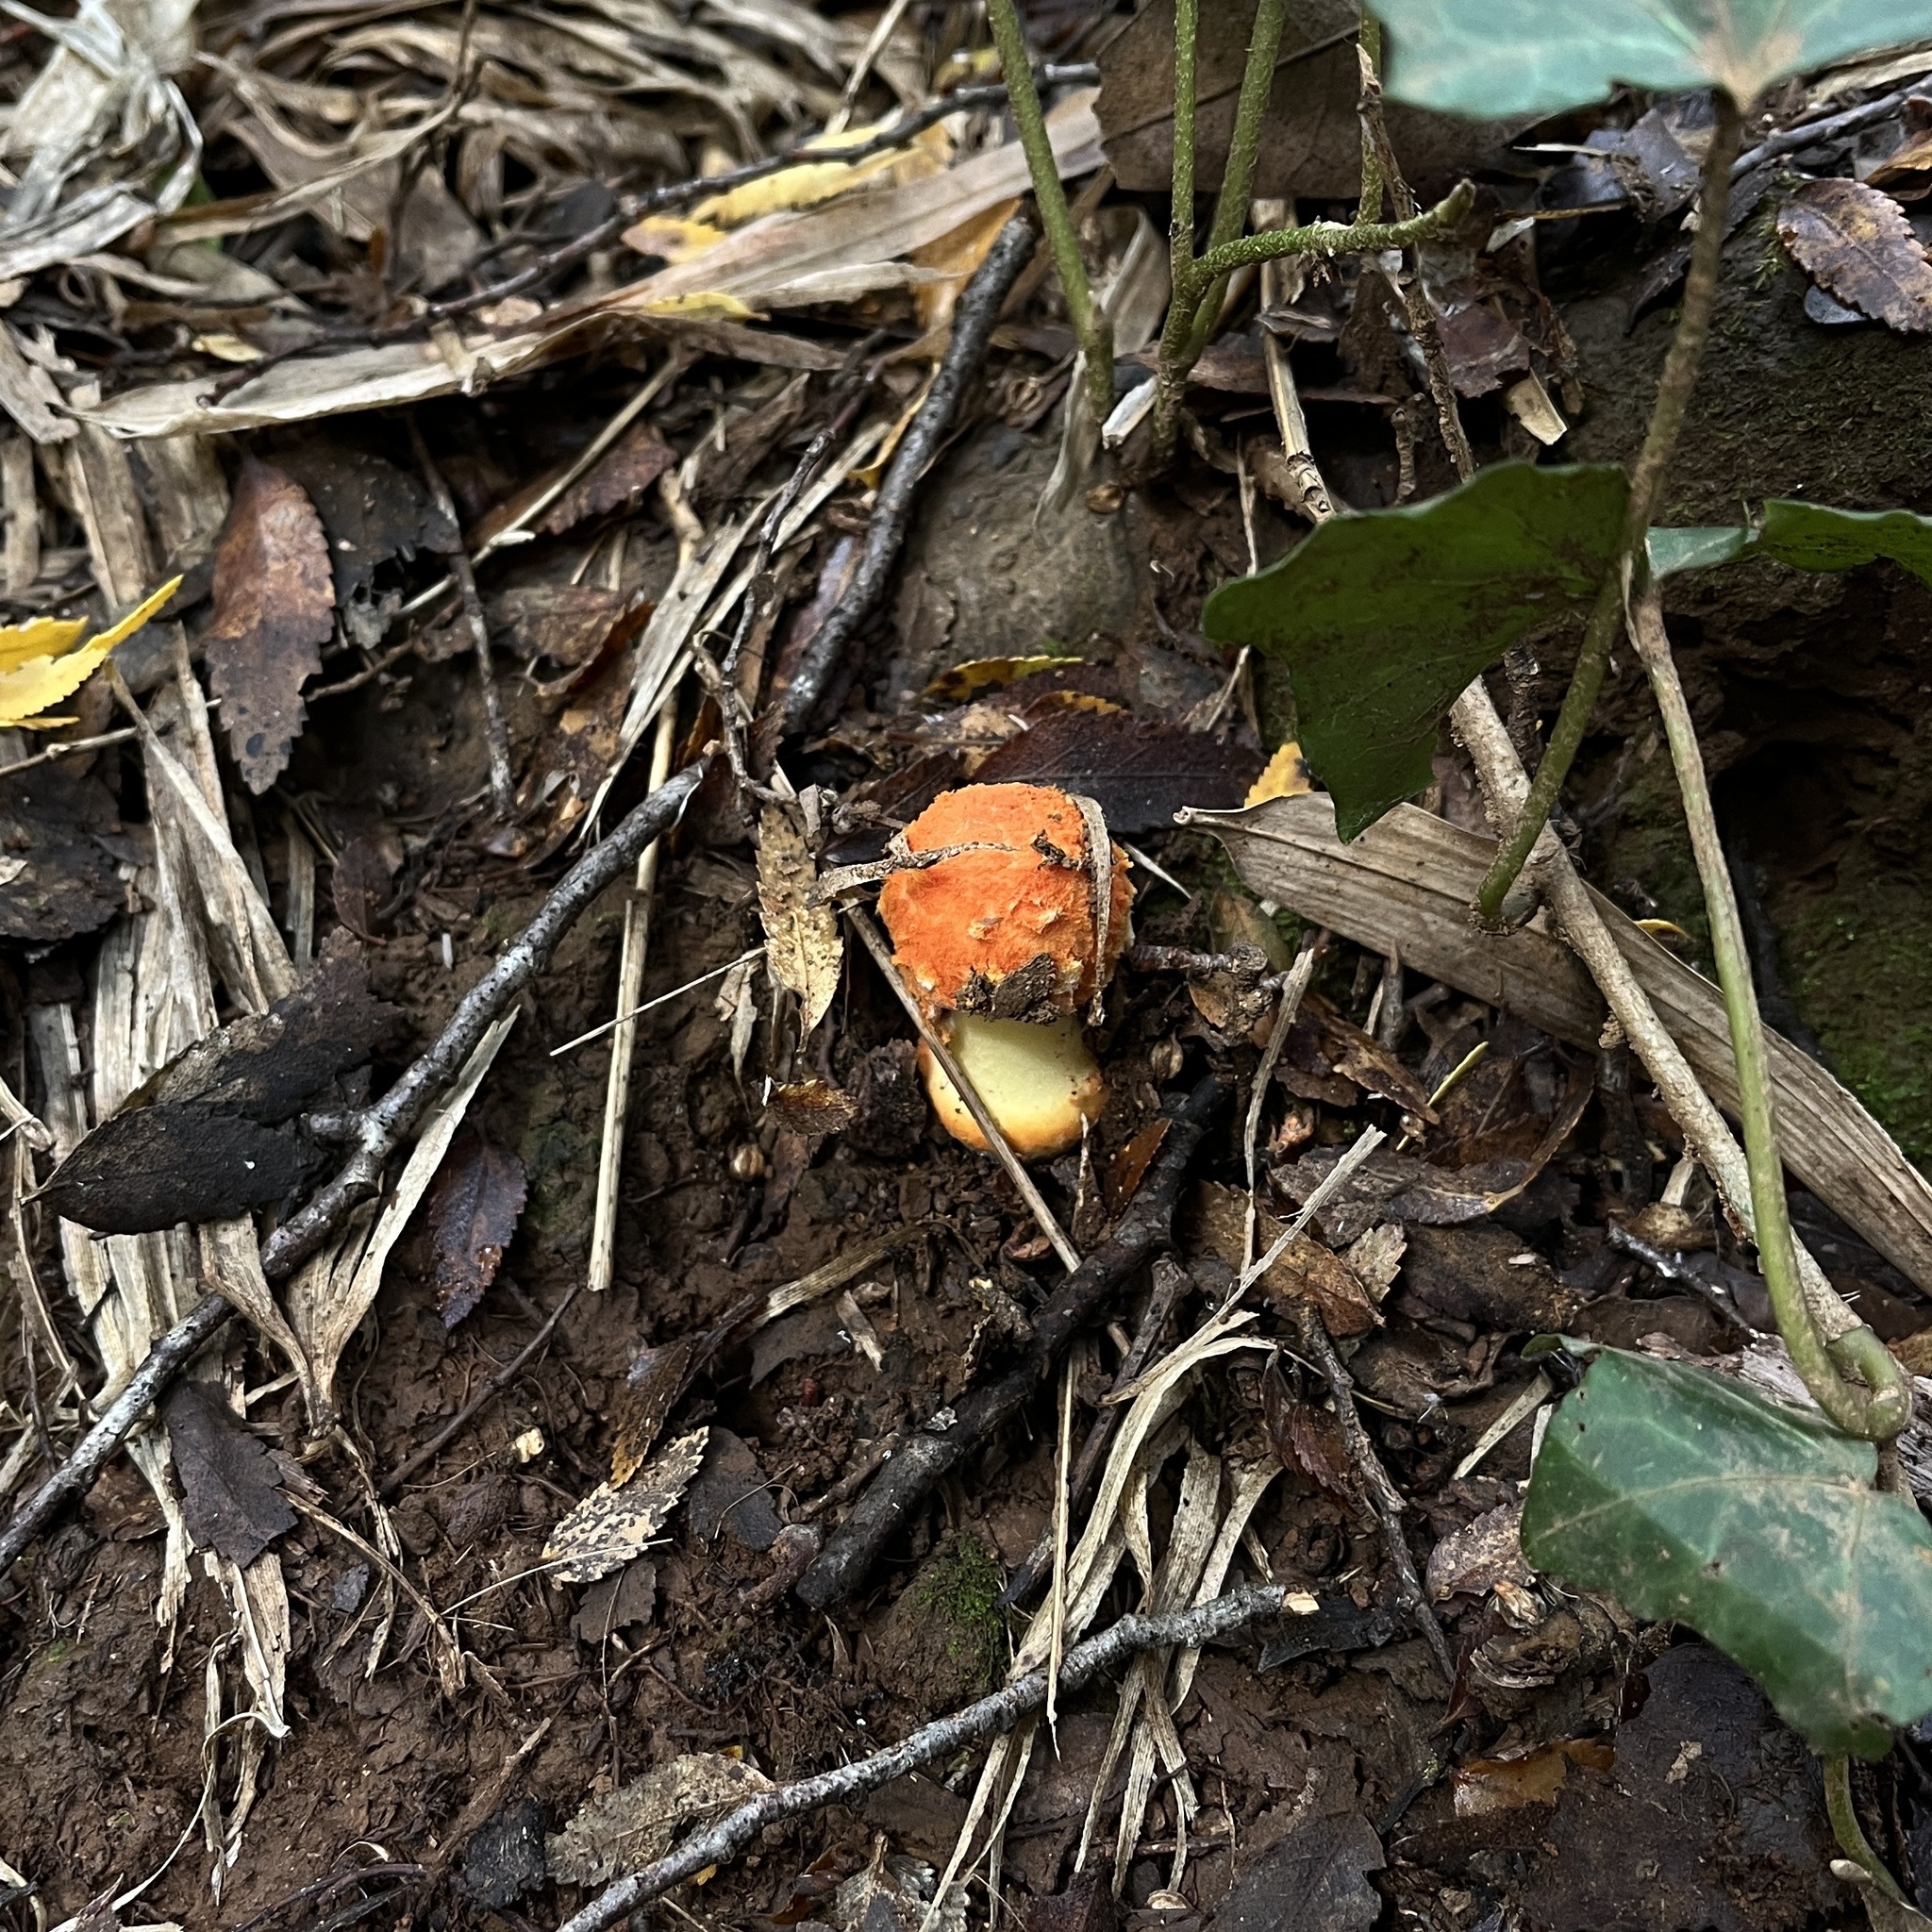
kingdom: Fungi
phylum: Basidiomycota
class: Agaricomycetes
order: Agaricales
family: Amanitaceae
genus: Amanita
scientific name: Amanita aurantiovelata
